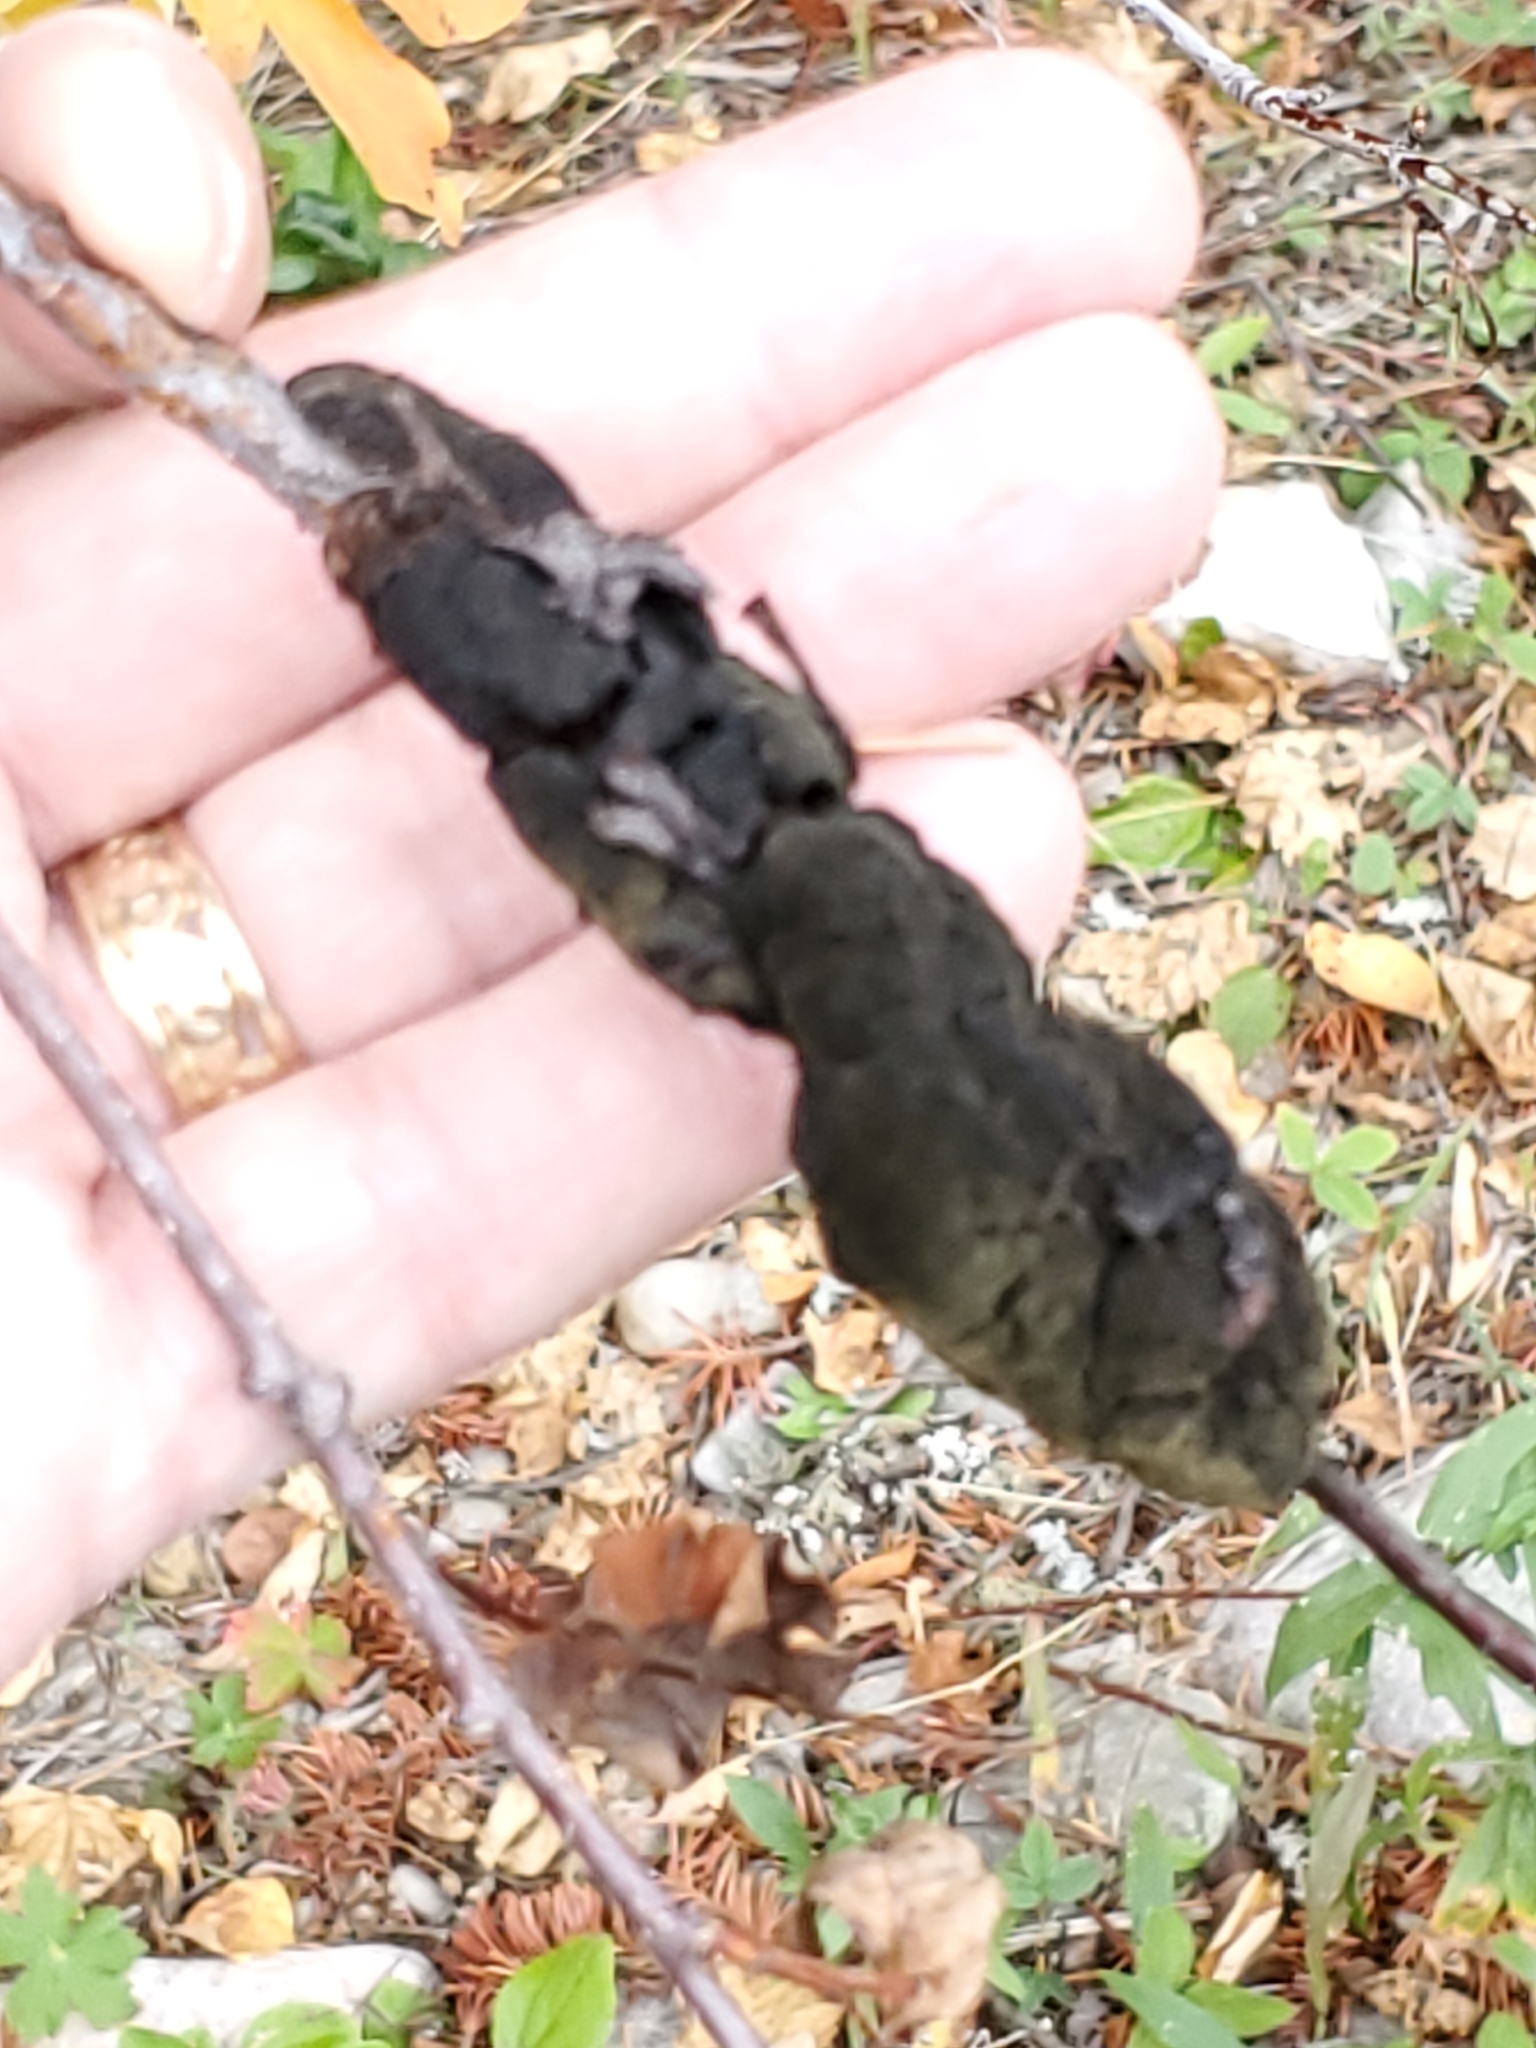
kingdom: Fungi
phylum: Ascomycota
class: Dothideomycetes
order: Venturiales
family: Venturiaceae
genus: Apiosporina
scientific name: Apiosporina morbosa
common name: Black knot
